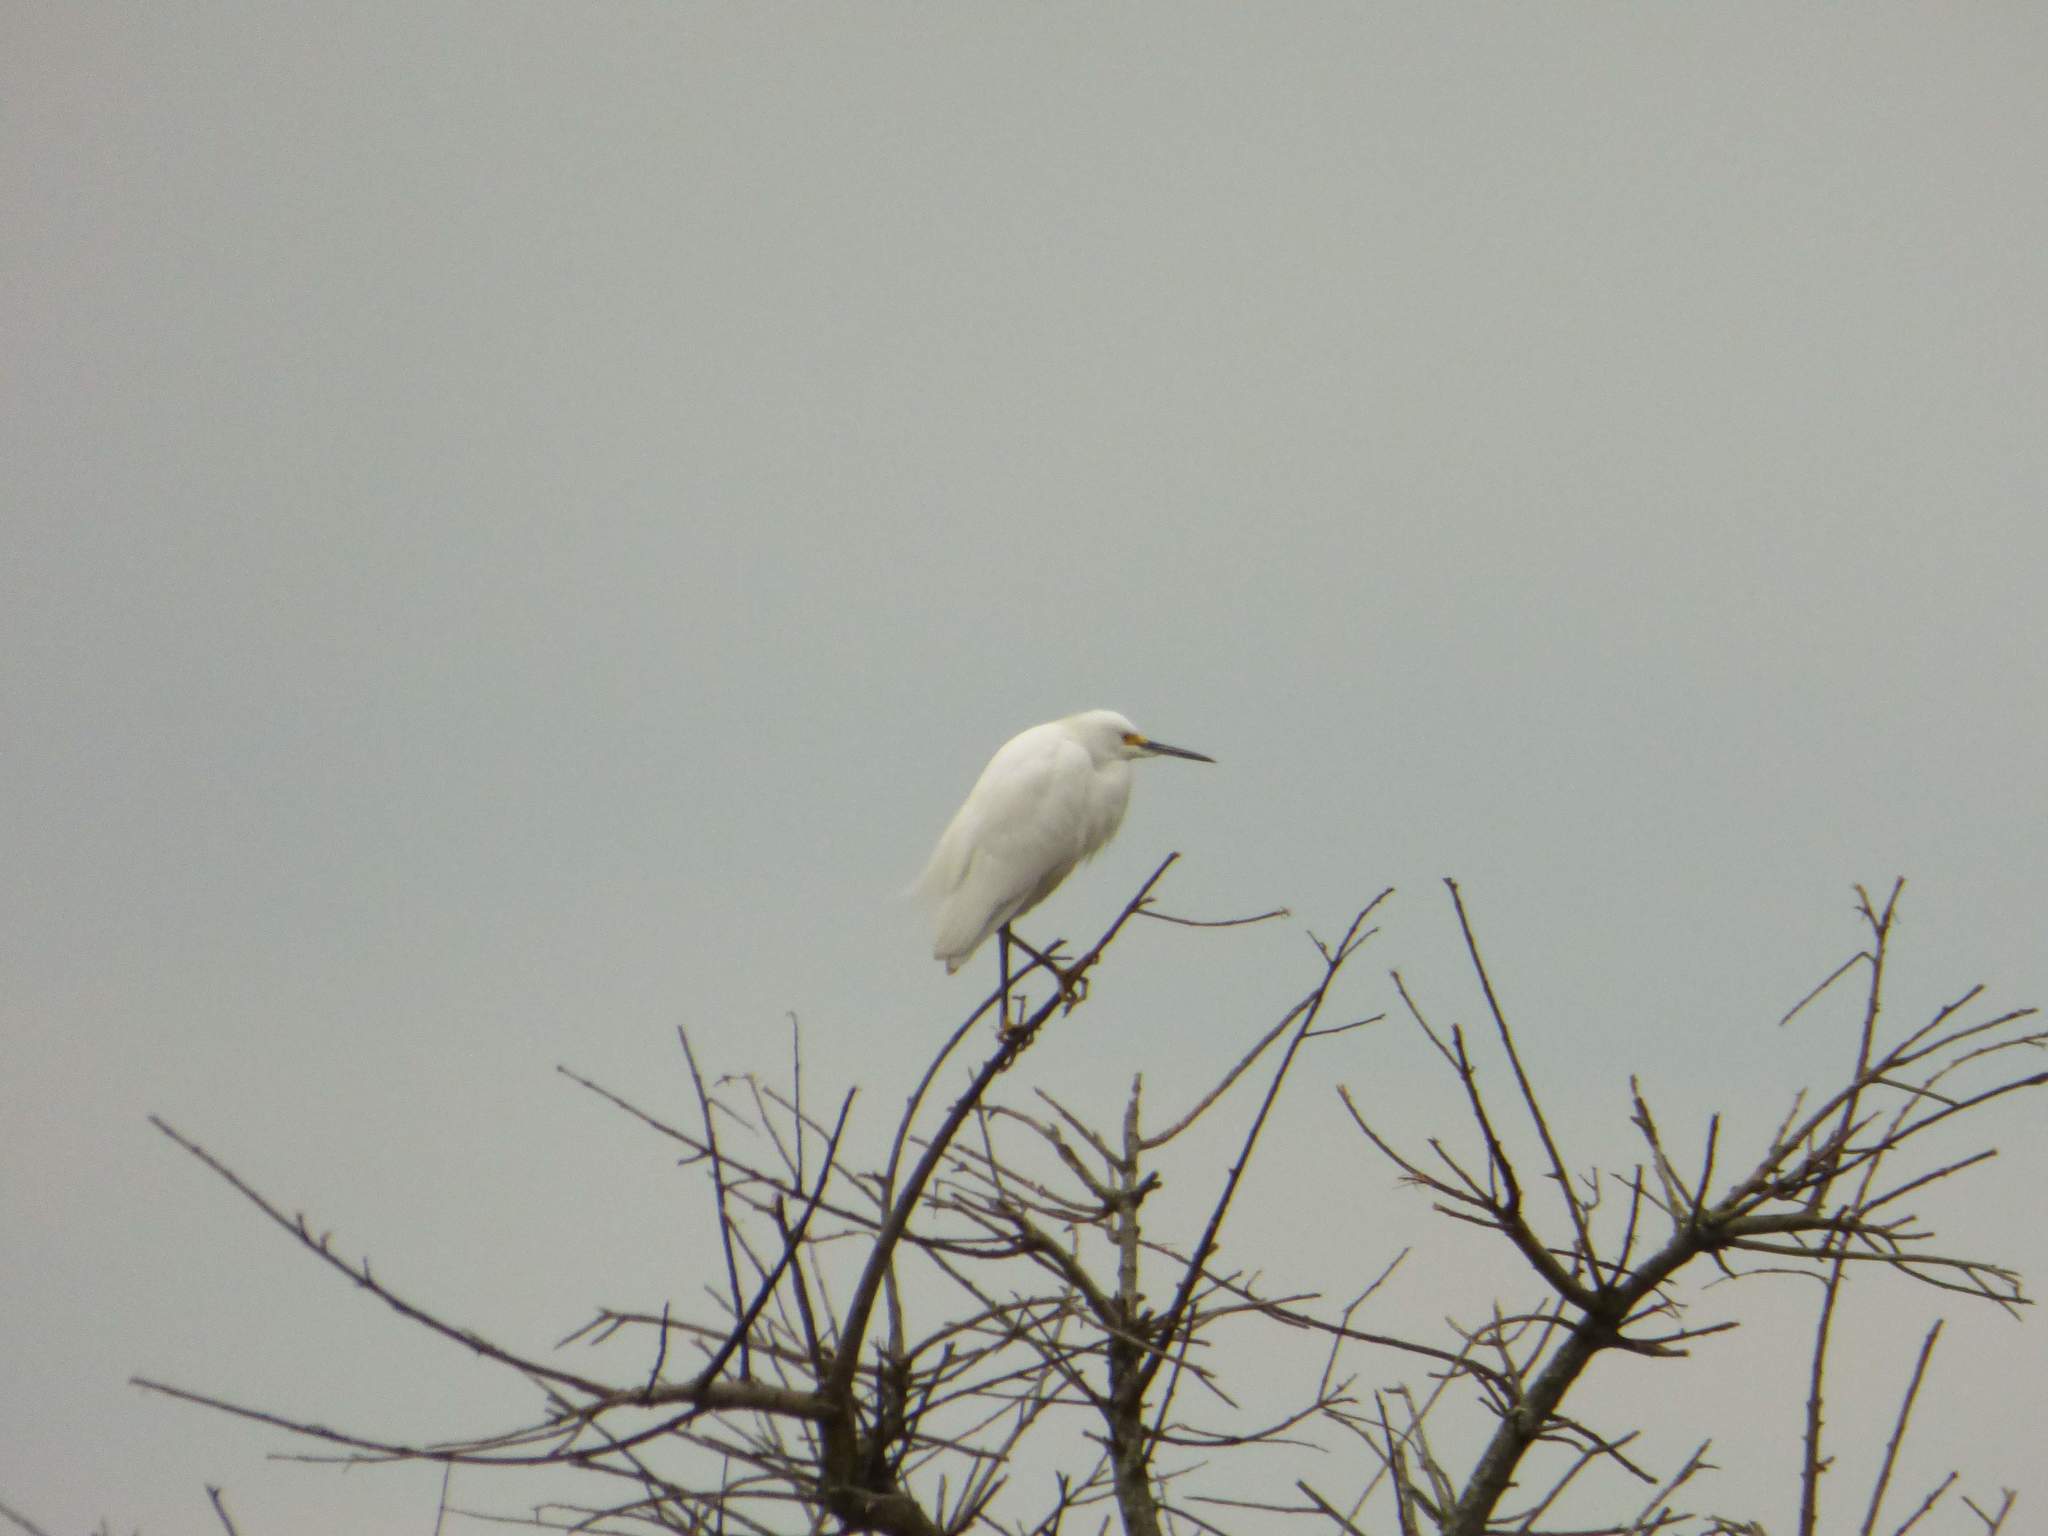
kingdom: Animalia
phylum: Chordata
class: Aves
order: Pelecaniformes
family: Ardeidae
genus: Egretta
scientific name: Egretta thula
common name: Snowy egret
